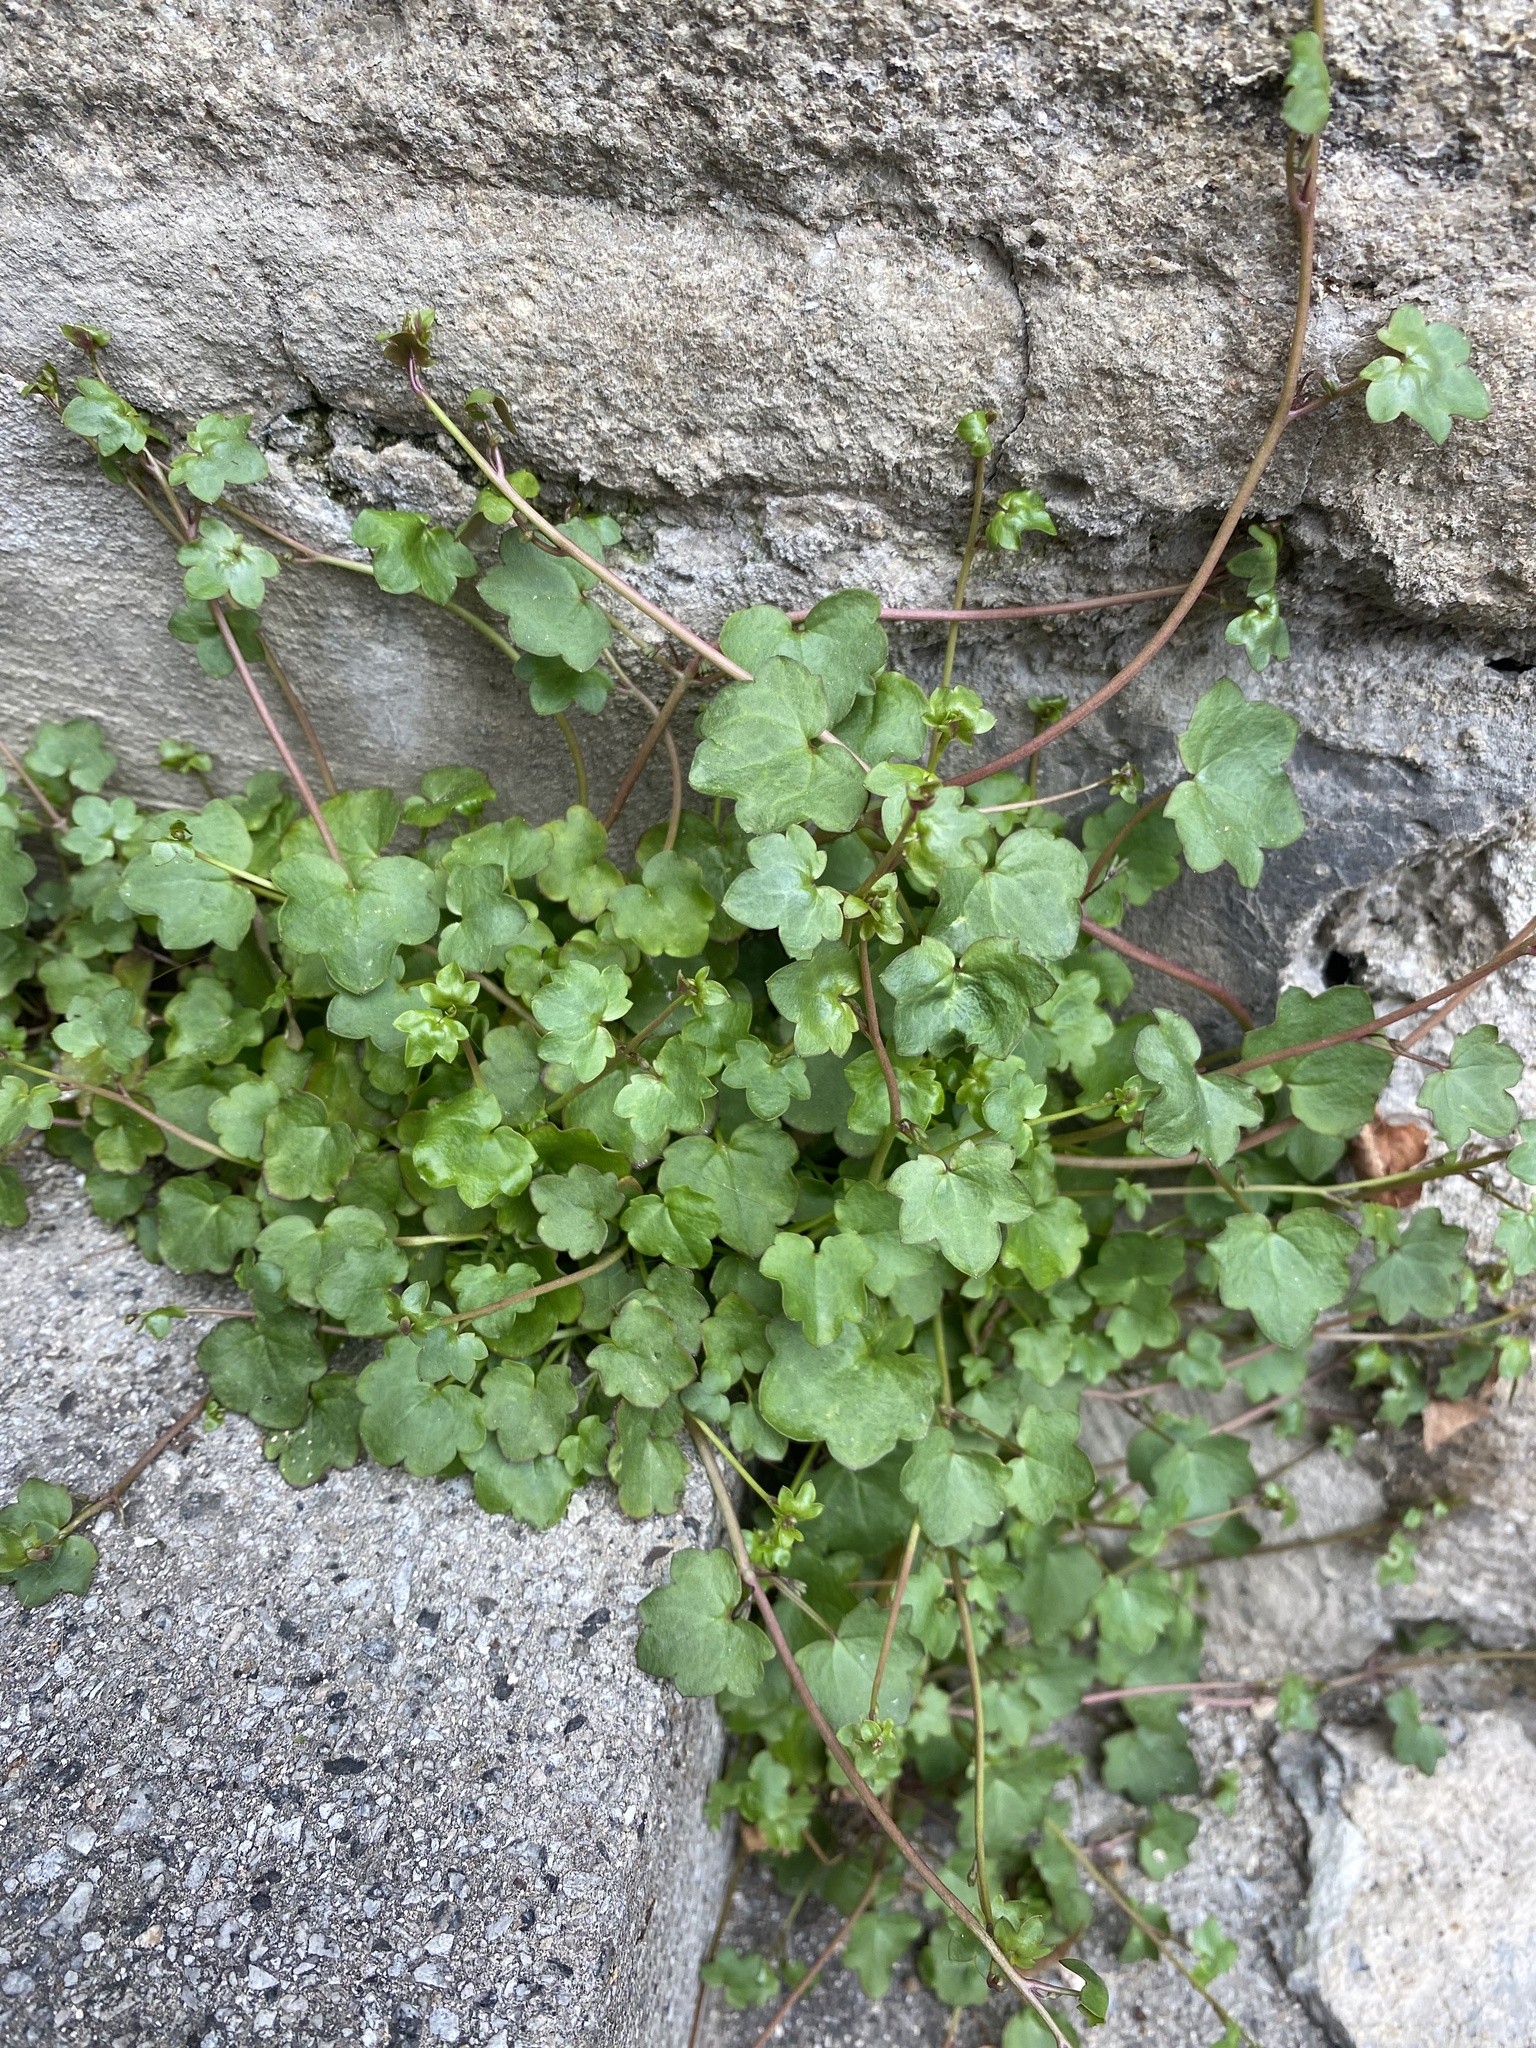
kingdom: Plantae
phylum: Tracheophyta
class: Magnoliopsida
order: Lamiales
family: Plantaginaceae
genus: Cymbalaria
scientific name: Cymbalaria muralis
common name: Ivy-leaved toadflax
